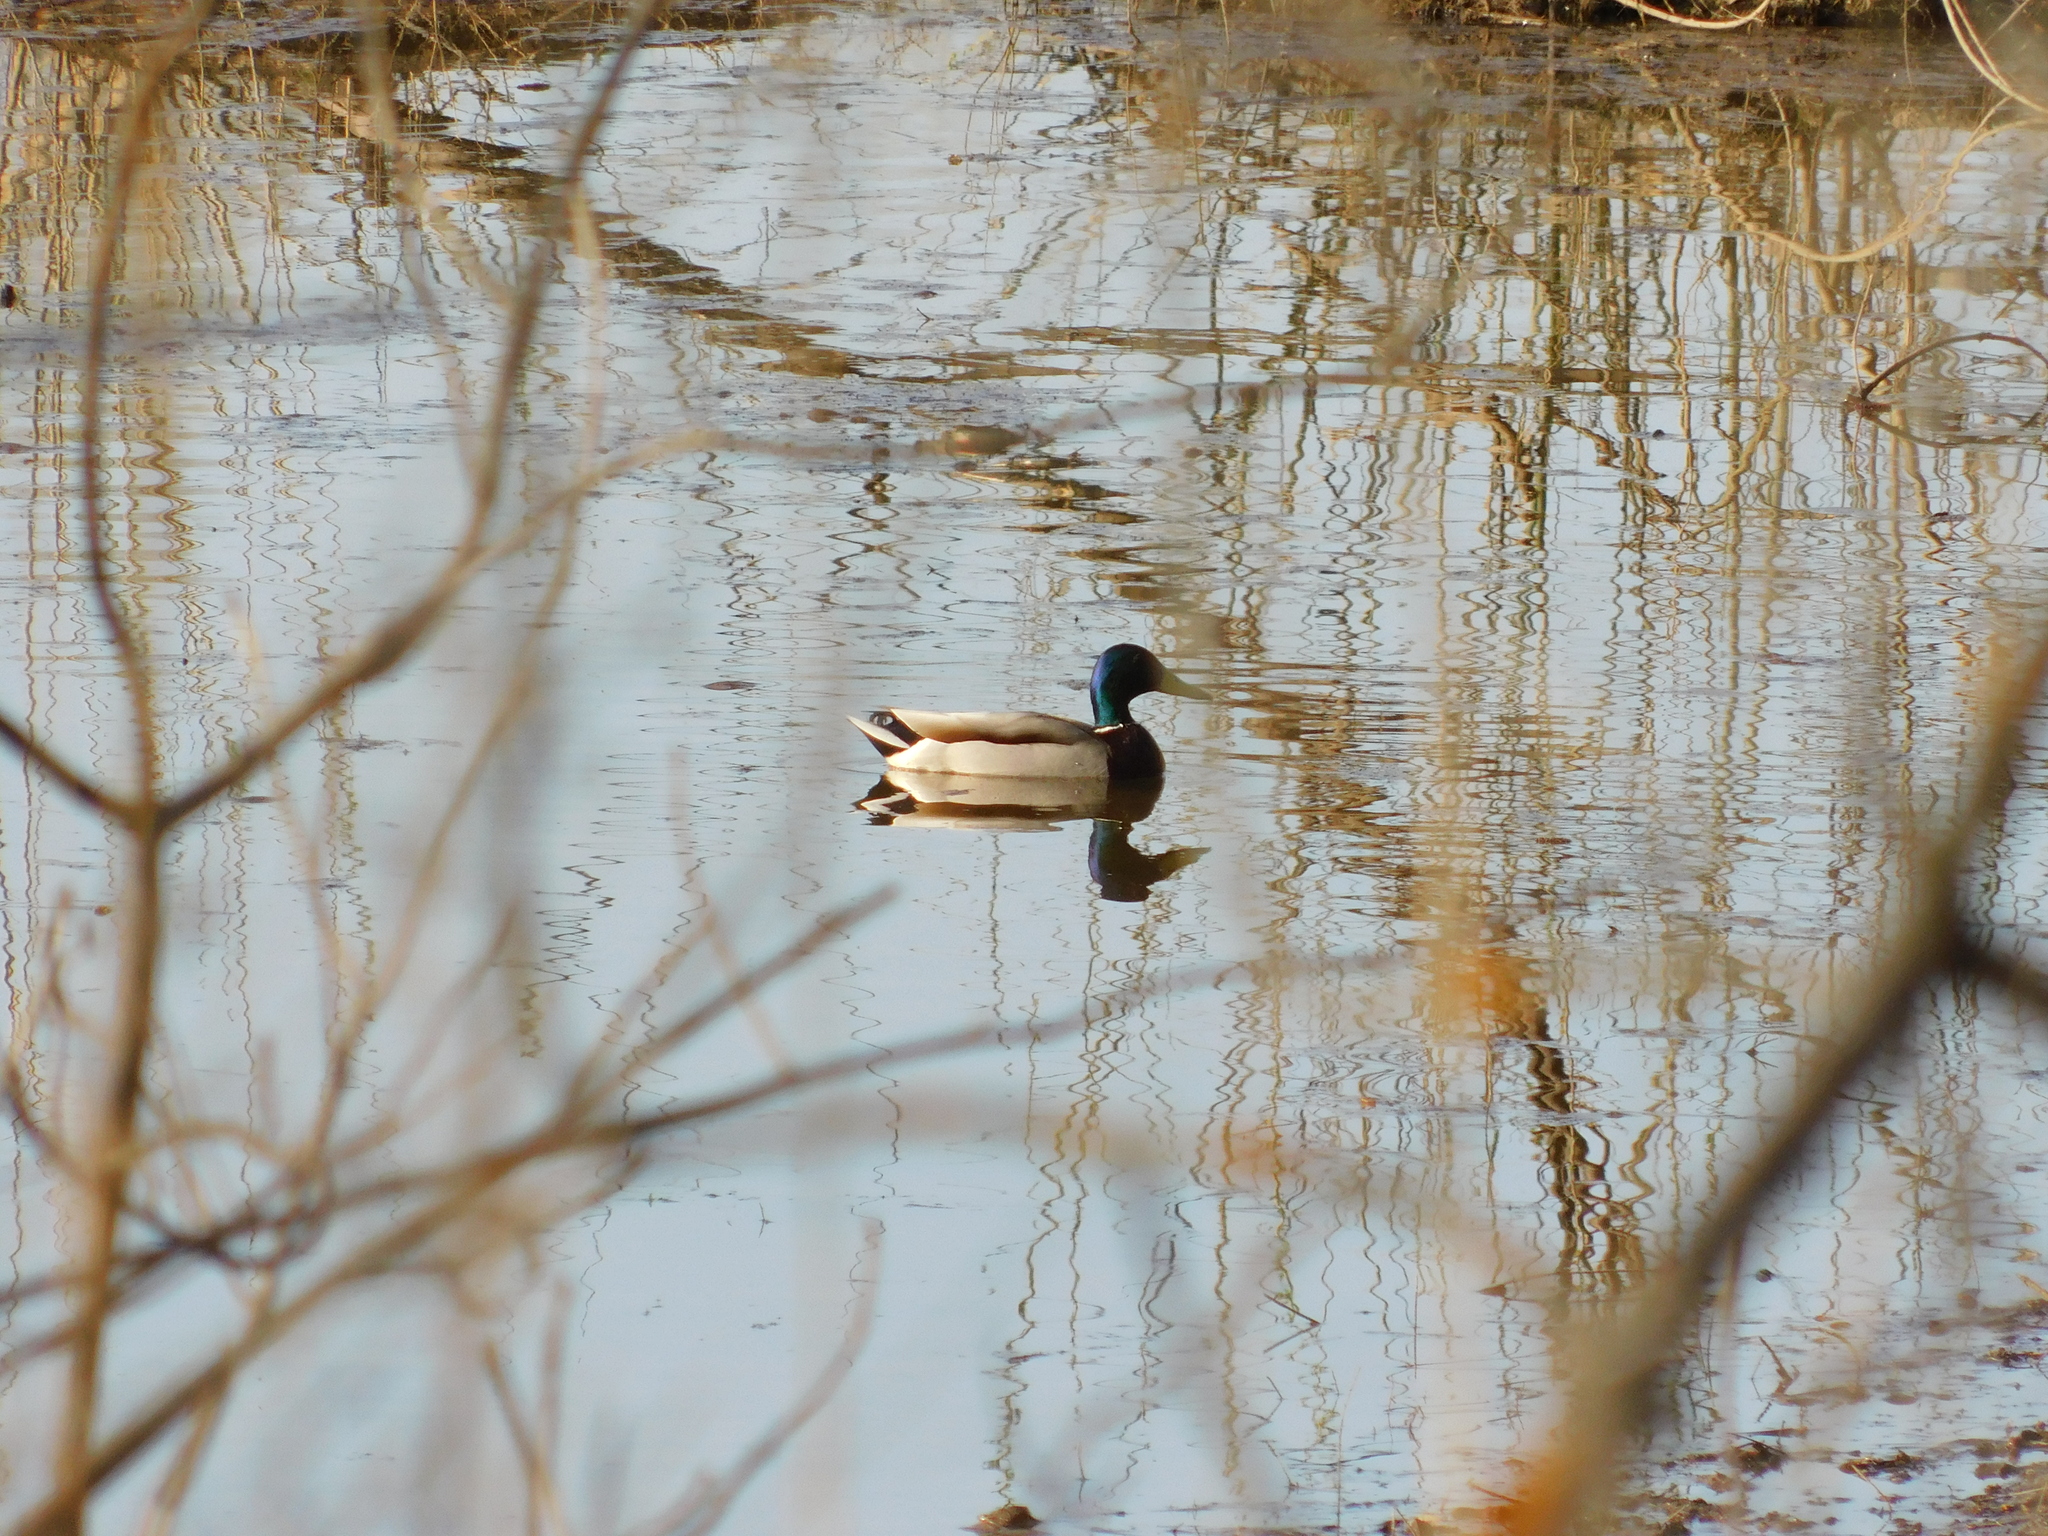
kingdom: Animalia
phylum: Chordata
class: Aves
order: Anseriformes
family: Anatidae
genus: Anas
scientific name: Anas platyrhynchos
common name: Mallard
